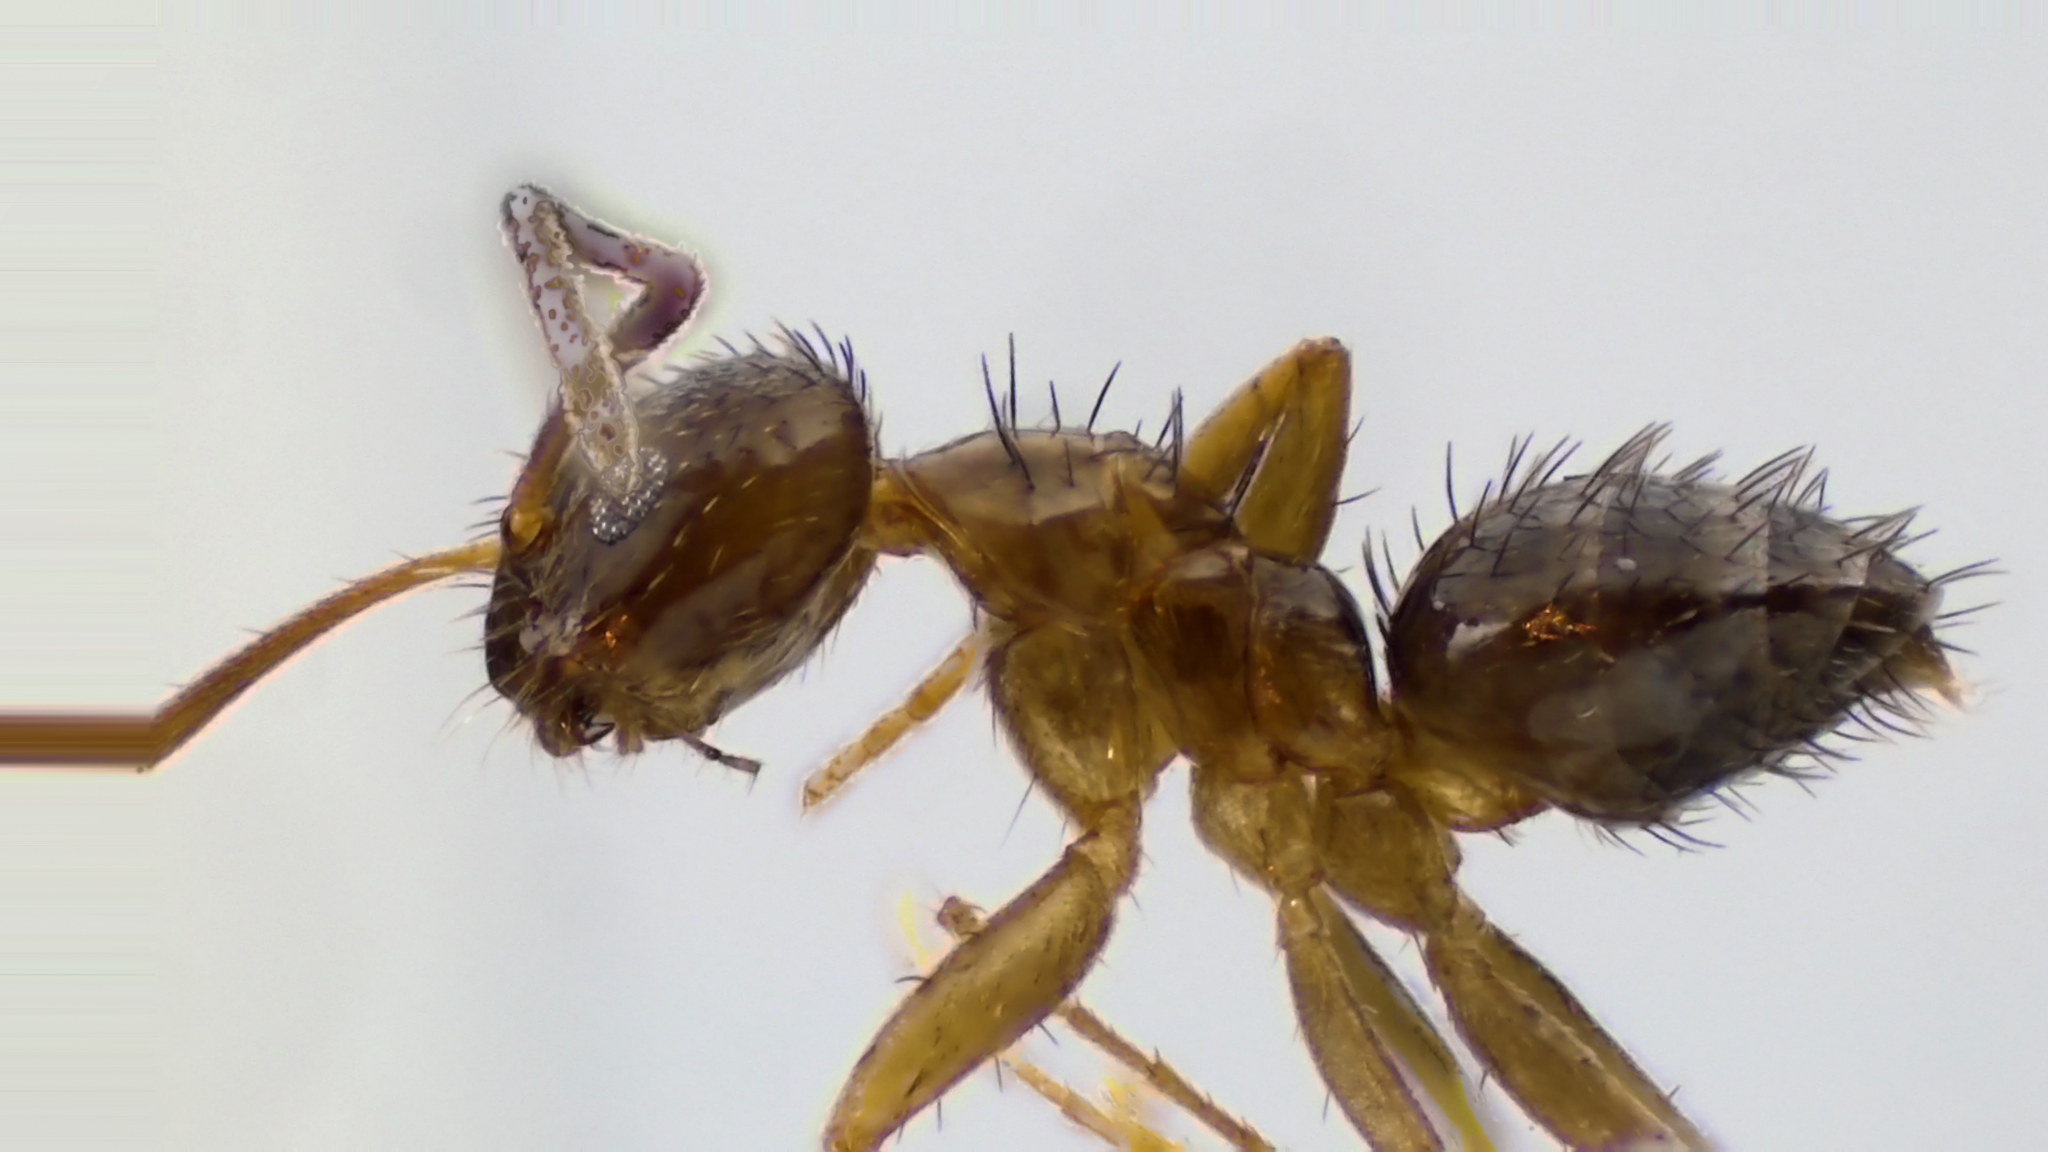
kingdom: Animalia
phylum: Arthropoda
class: Insecta
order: Hymenoptera
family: Formicidae
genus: Paratrechina
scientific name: Paratrechina vividula
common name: Nylander's crazy ant
